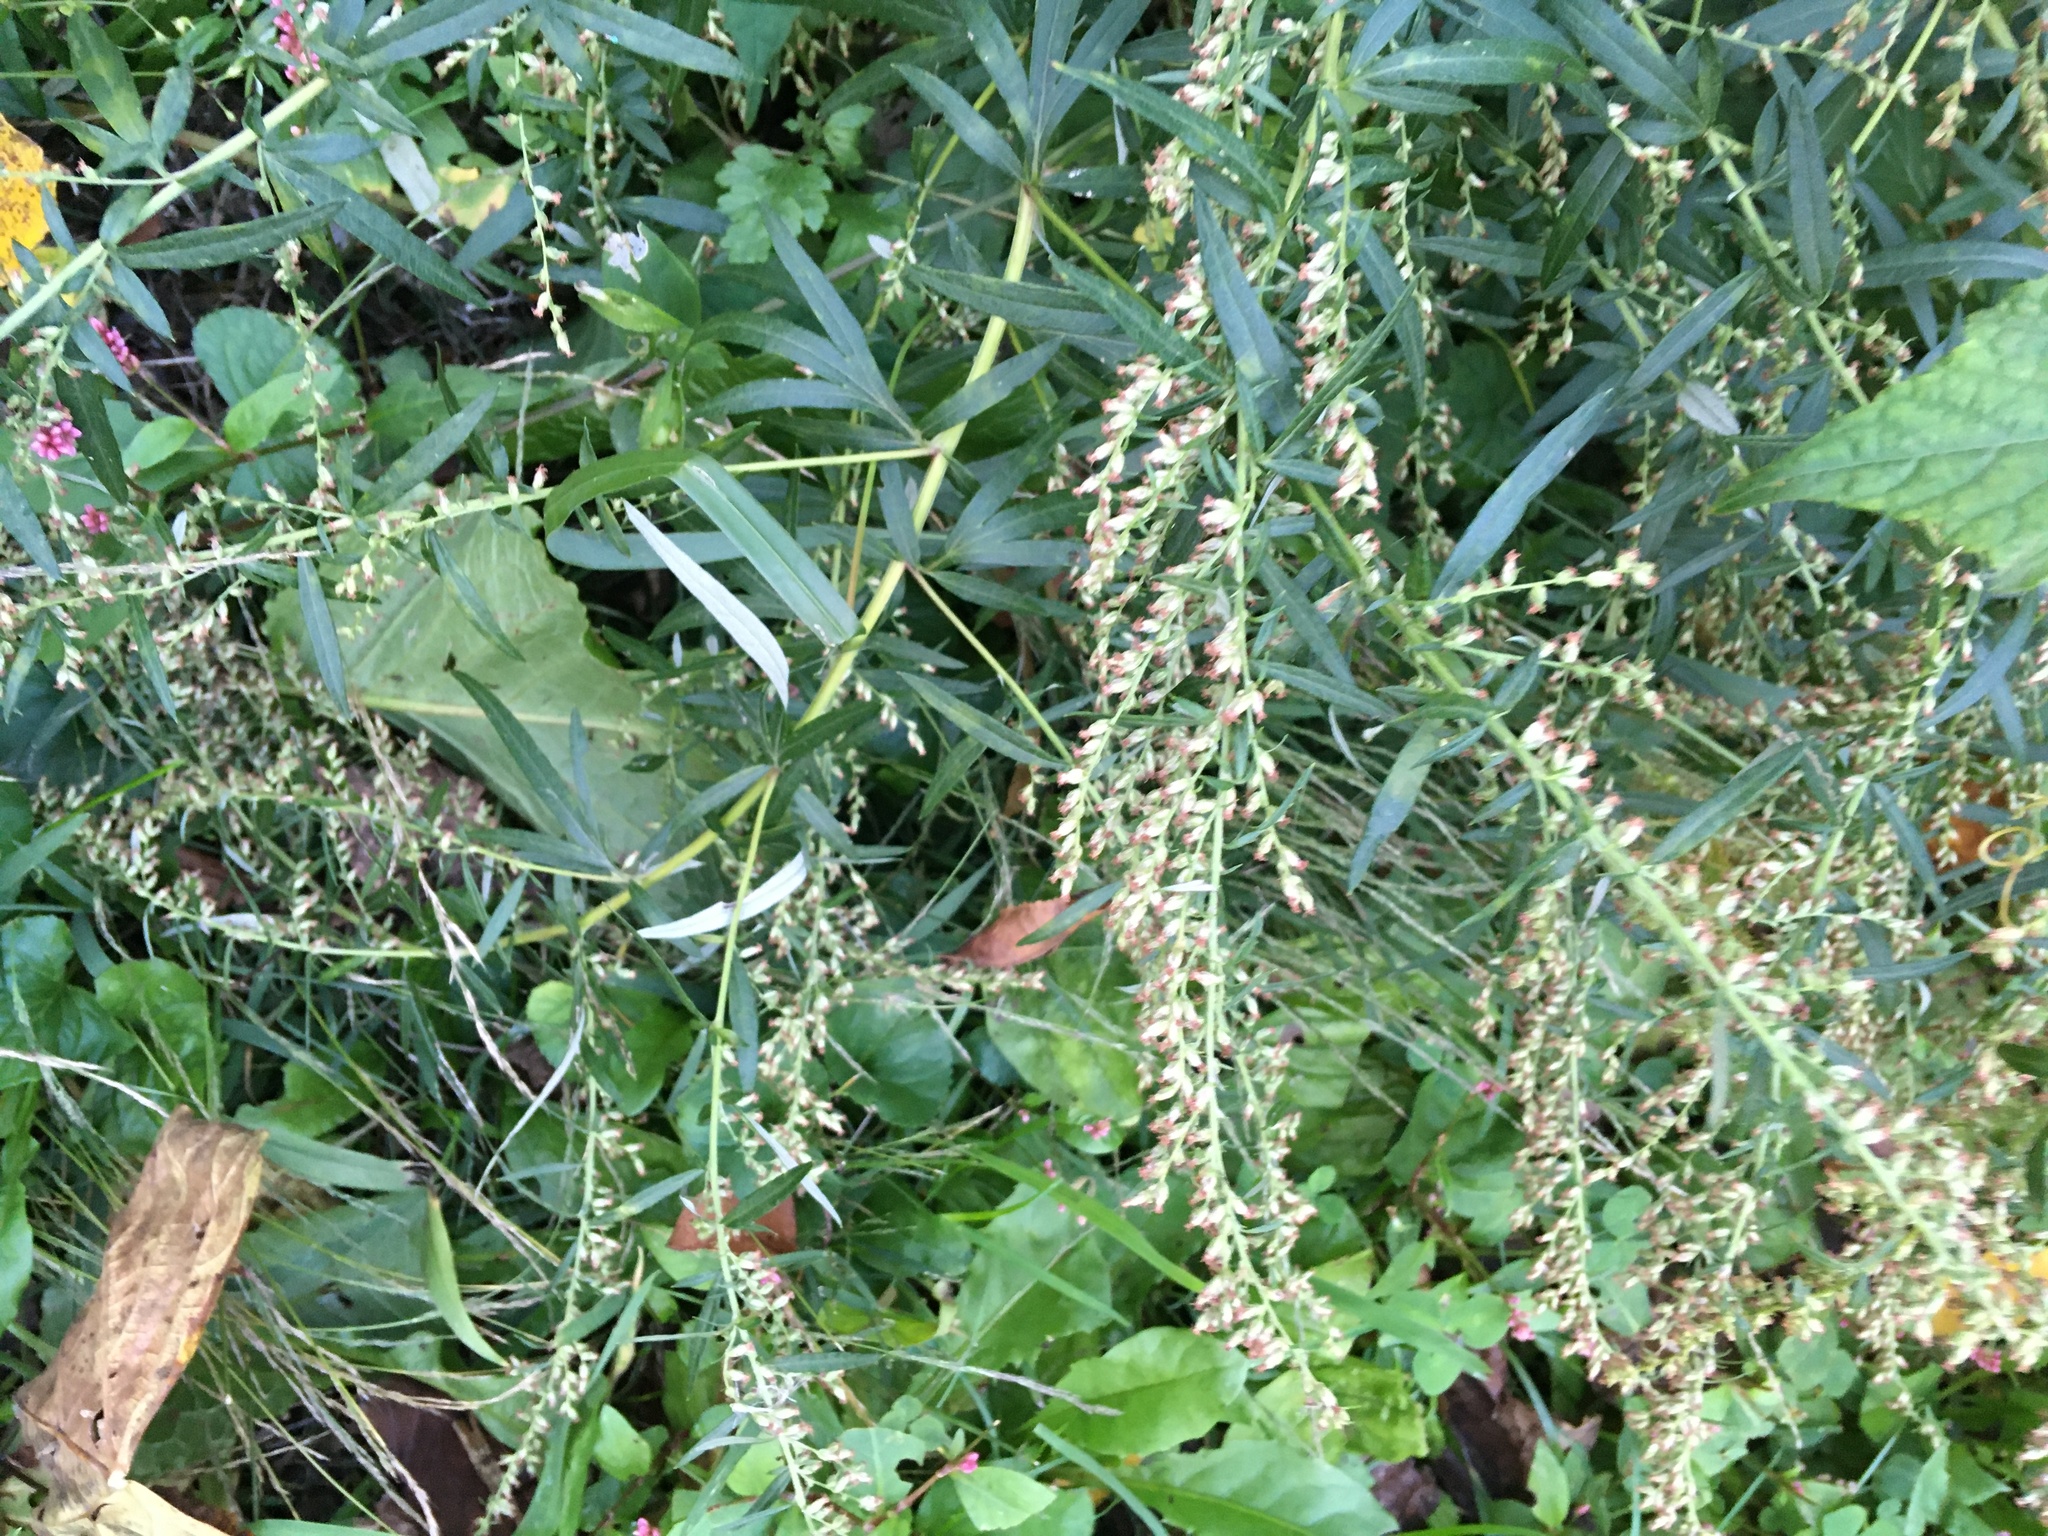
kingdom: Plantae
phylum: Tracheophyta
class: Magnoliopsida
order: Asterales
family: Asteraceae
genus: Artemisia
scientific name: Artemisia vulgaris
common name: Mugwort
